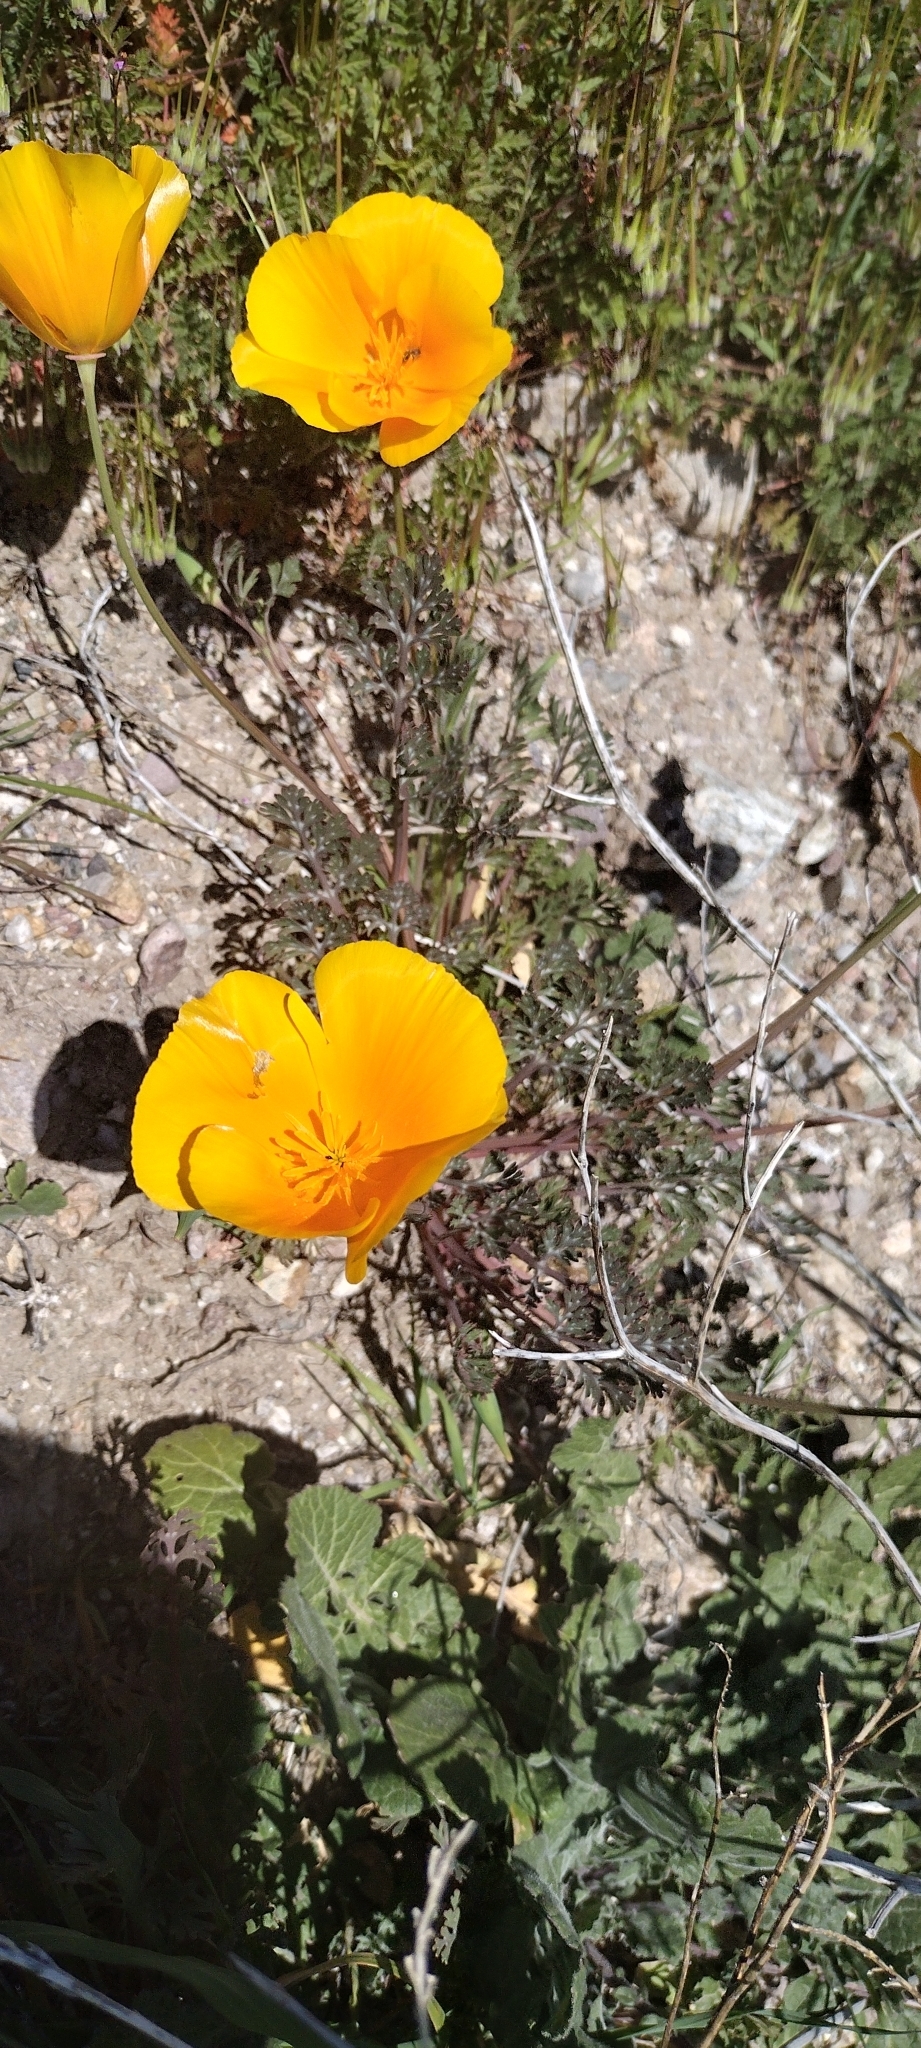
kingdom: Plantae
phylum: Tracheophyta
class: Magnoliopsida
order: Ranunculales
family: Papaveraceae
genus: Eschscholzia
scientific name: Eschscholzia californica
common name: California poppy
